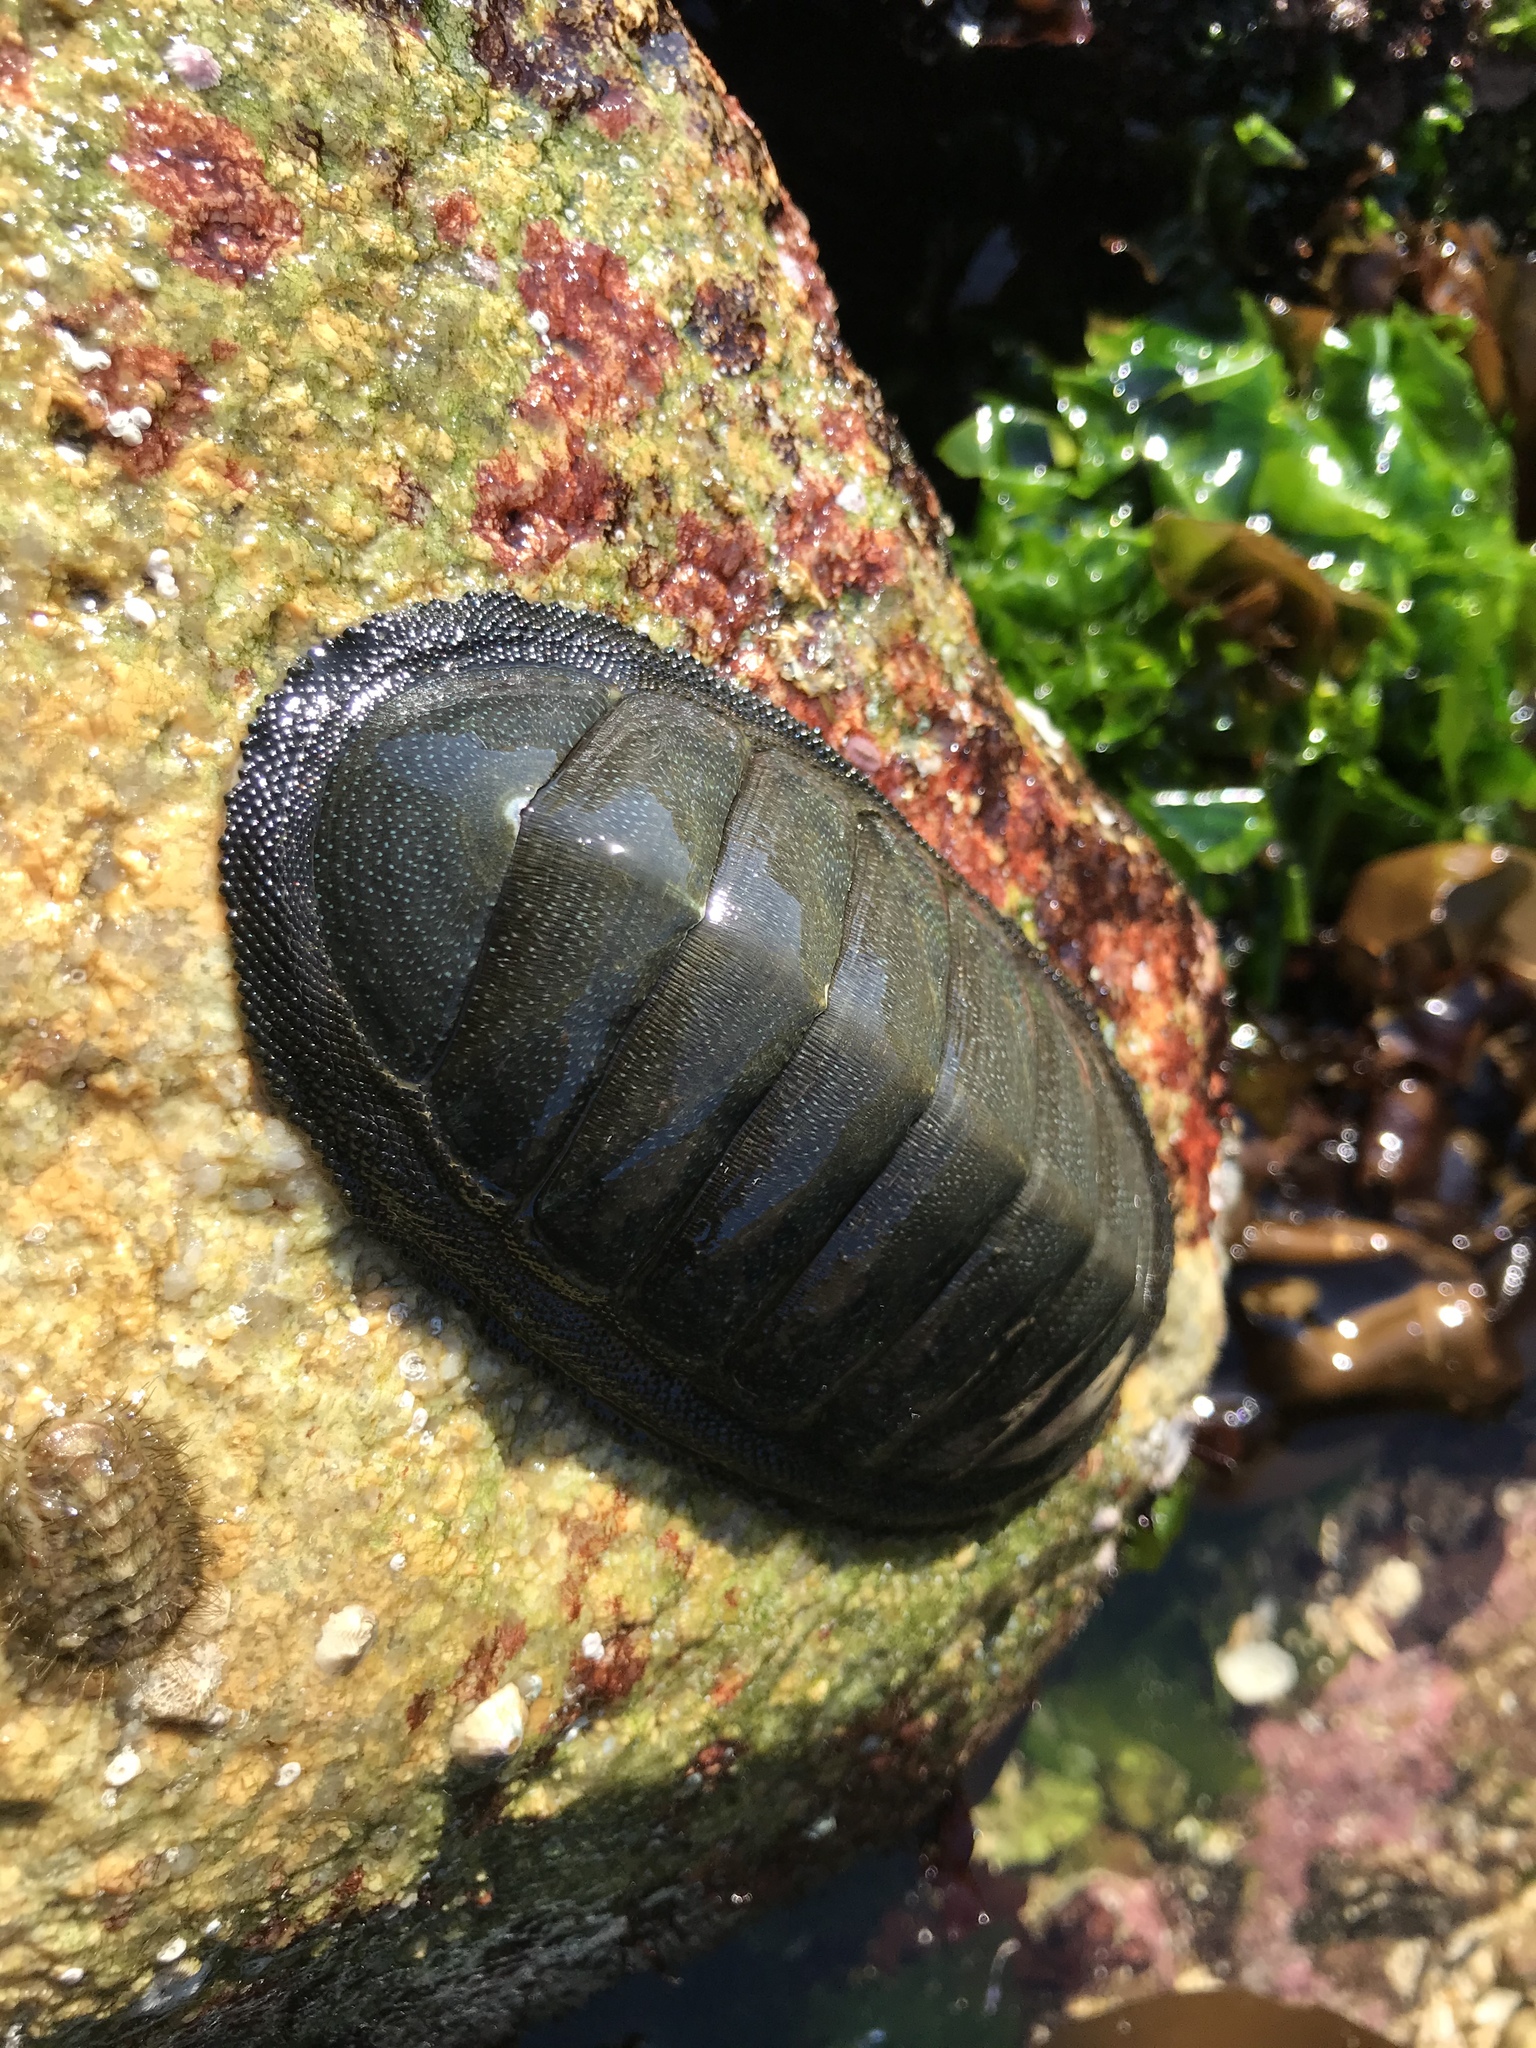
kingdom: Animalia
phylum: Mollusca
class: Polyplacophora
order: Chitonida
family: Chitonidae
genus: Chiton
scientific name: Chiton magnificus
